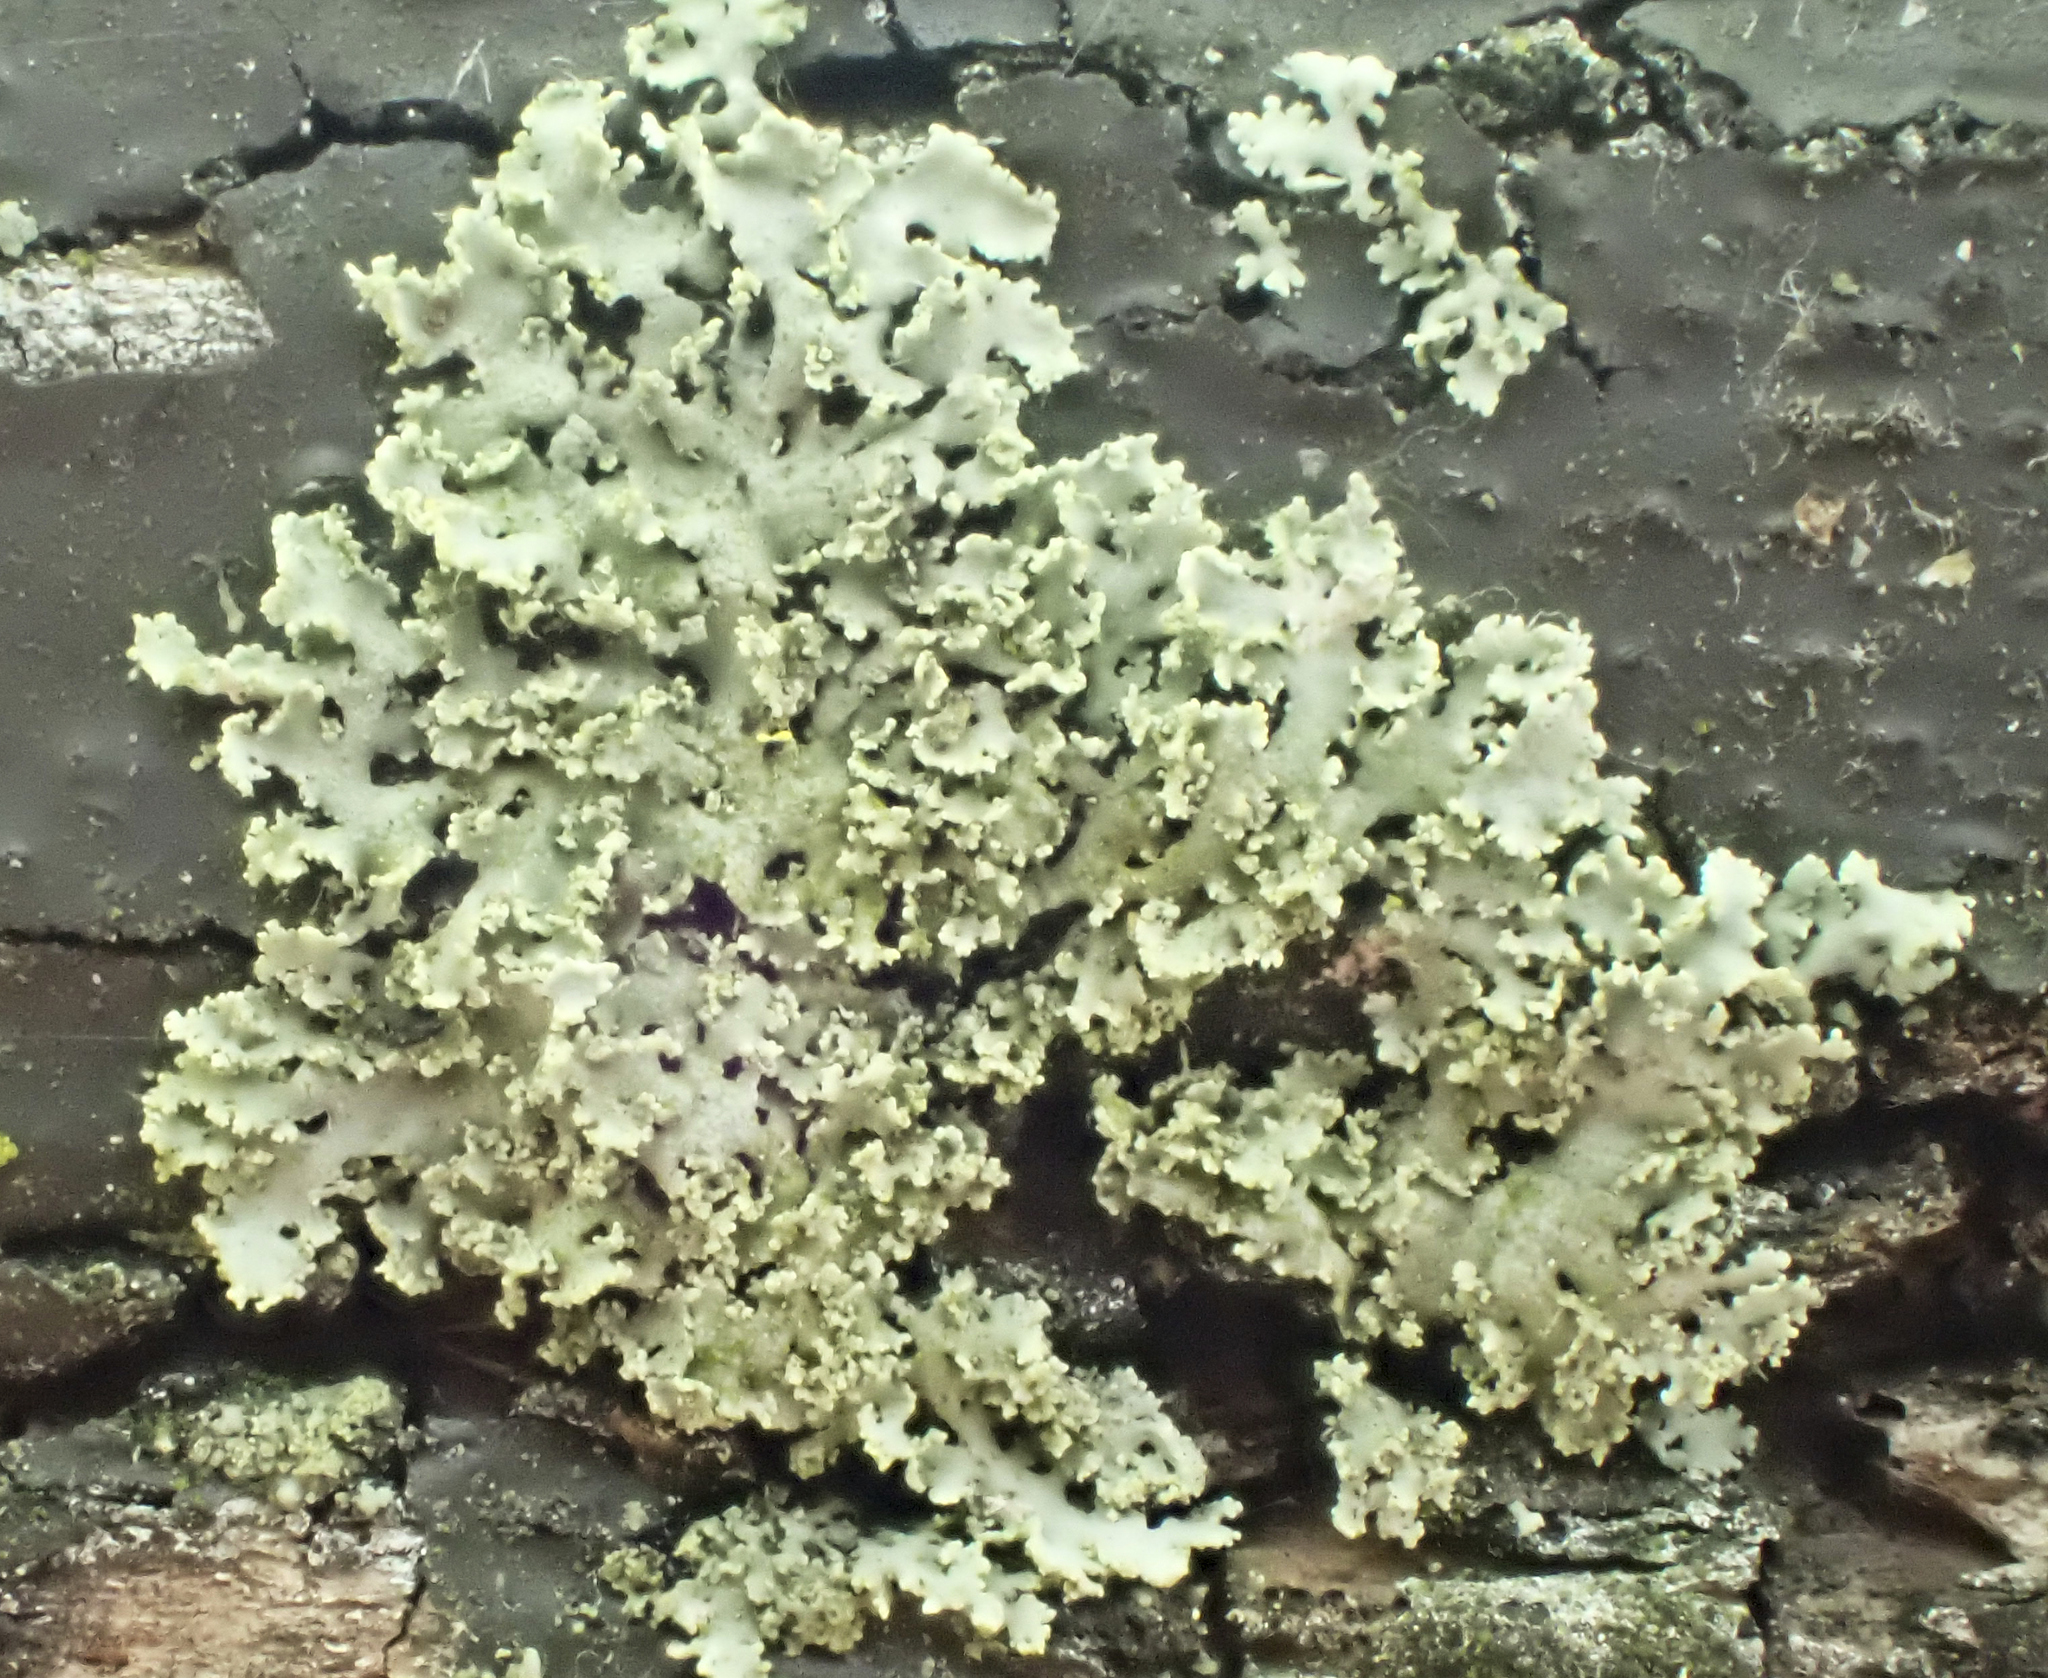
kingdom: Fungi
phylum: Ascomycota
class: Lecanoromycetes
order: Caliciales
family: Physciaceae
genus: Physcia
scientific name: Physcia millegrana
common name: Rosette lichen
